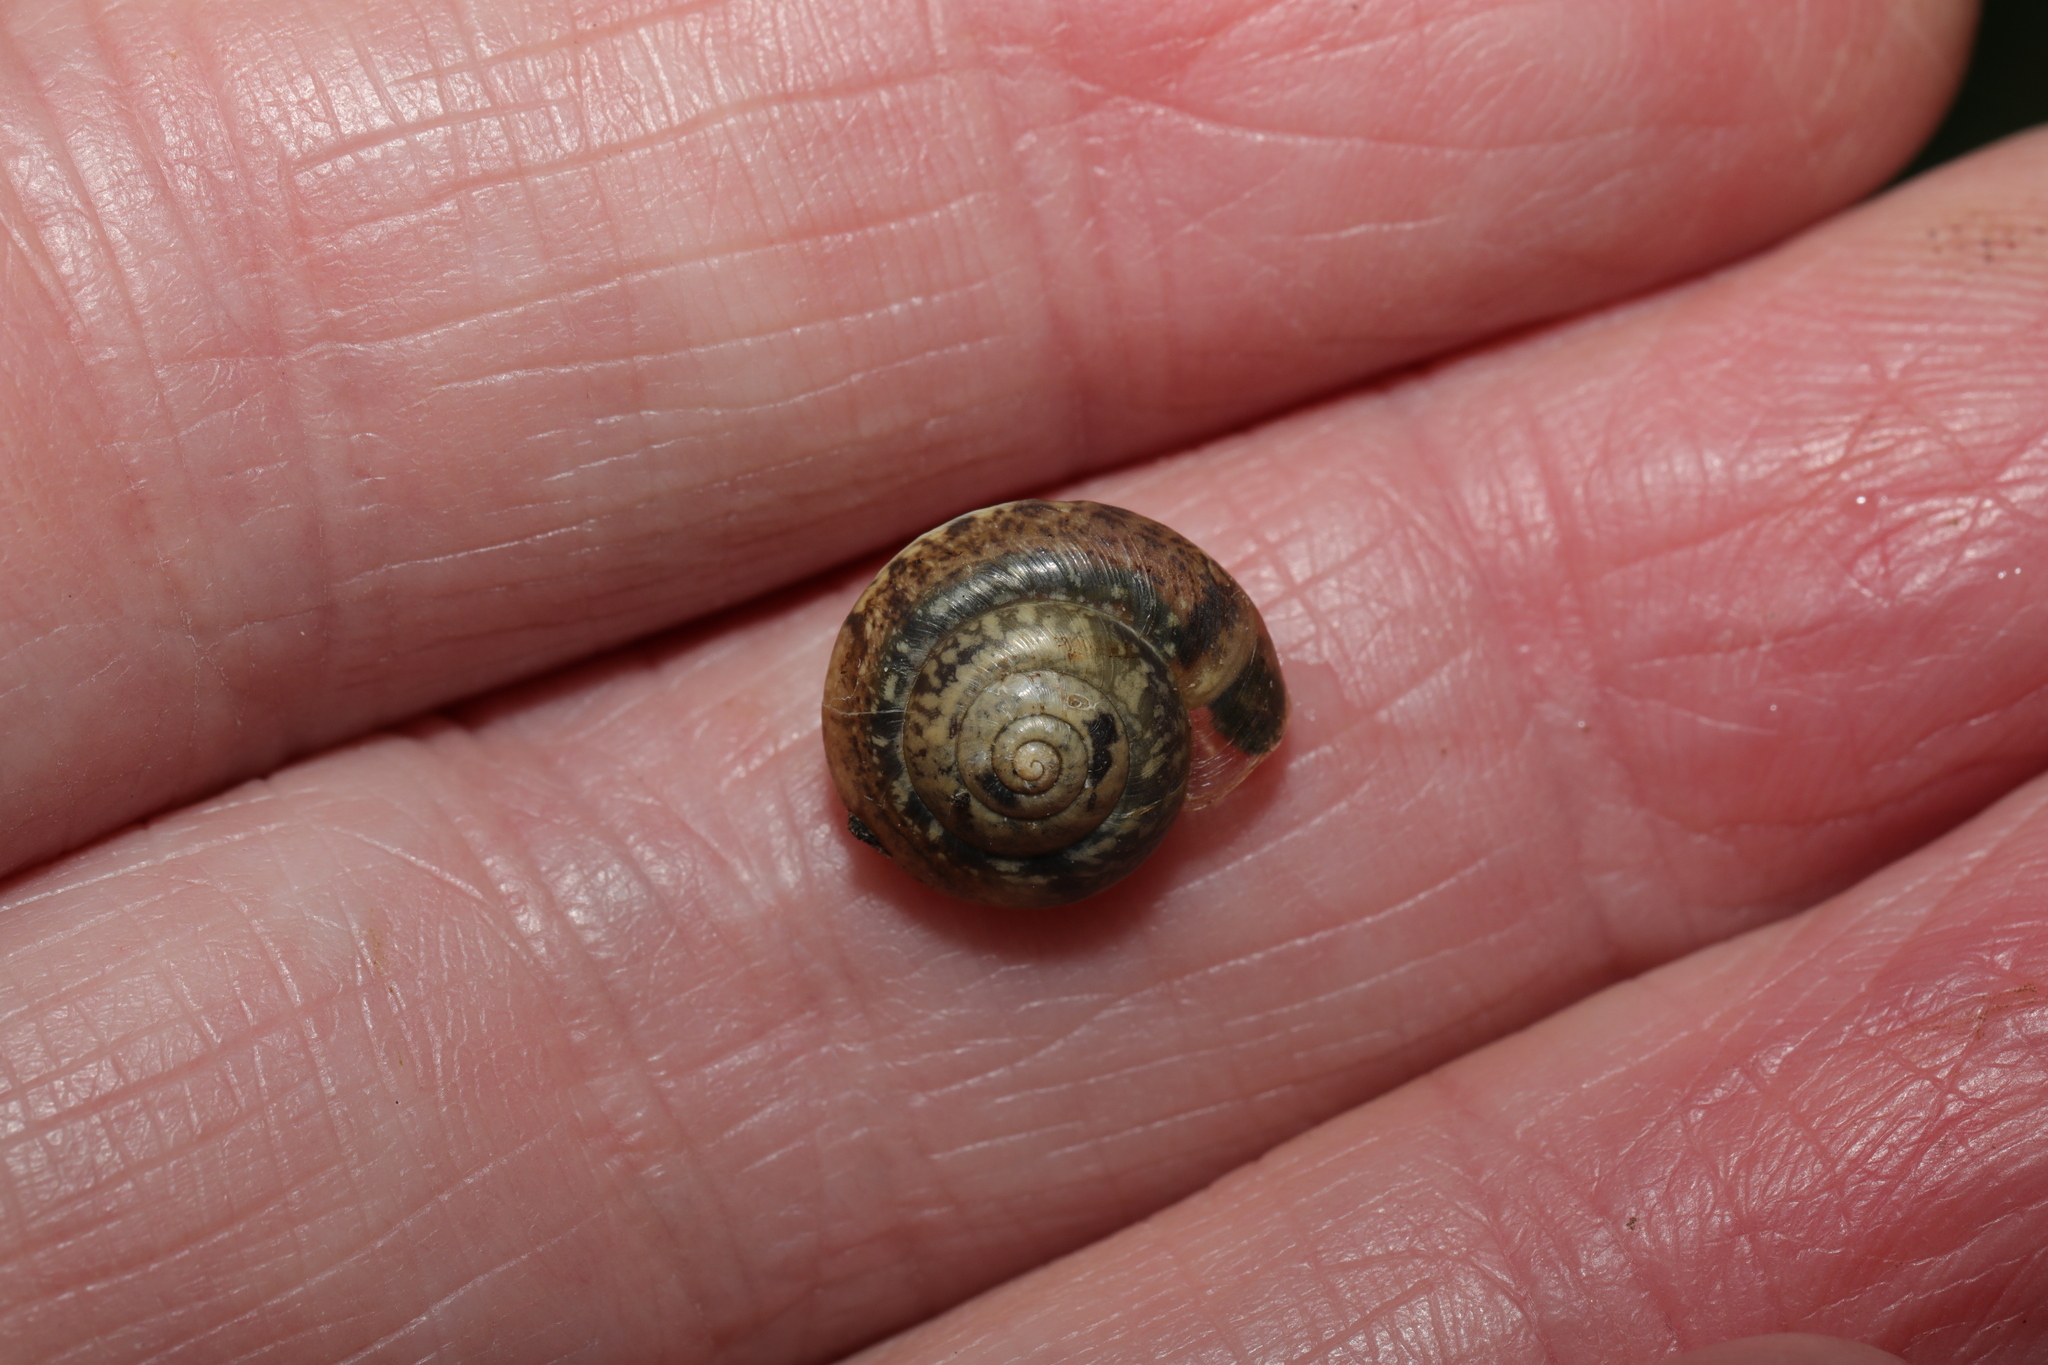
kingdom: Animalia
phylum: Mollusca
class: Gastropoda
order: Stylommatophora
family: Hygromiidae
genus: Hygromia
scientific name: Hygromia cinctella
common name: Girdled snail
